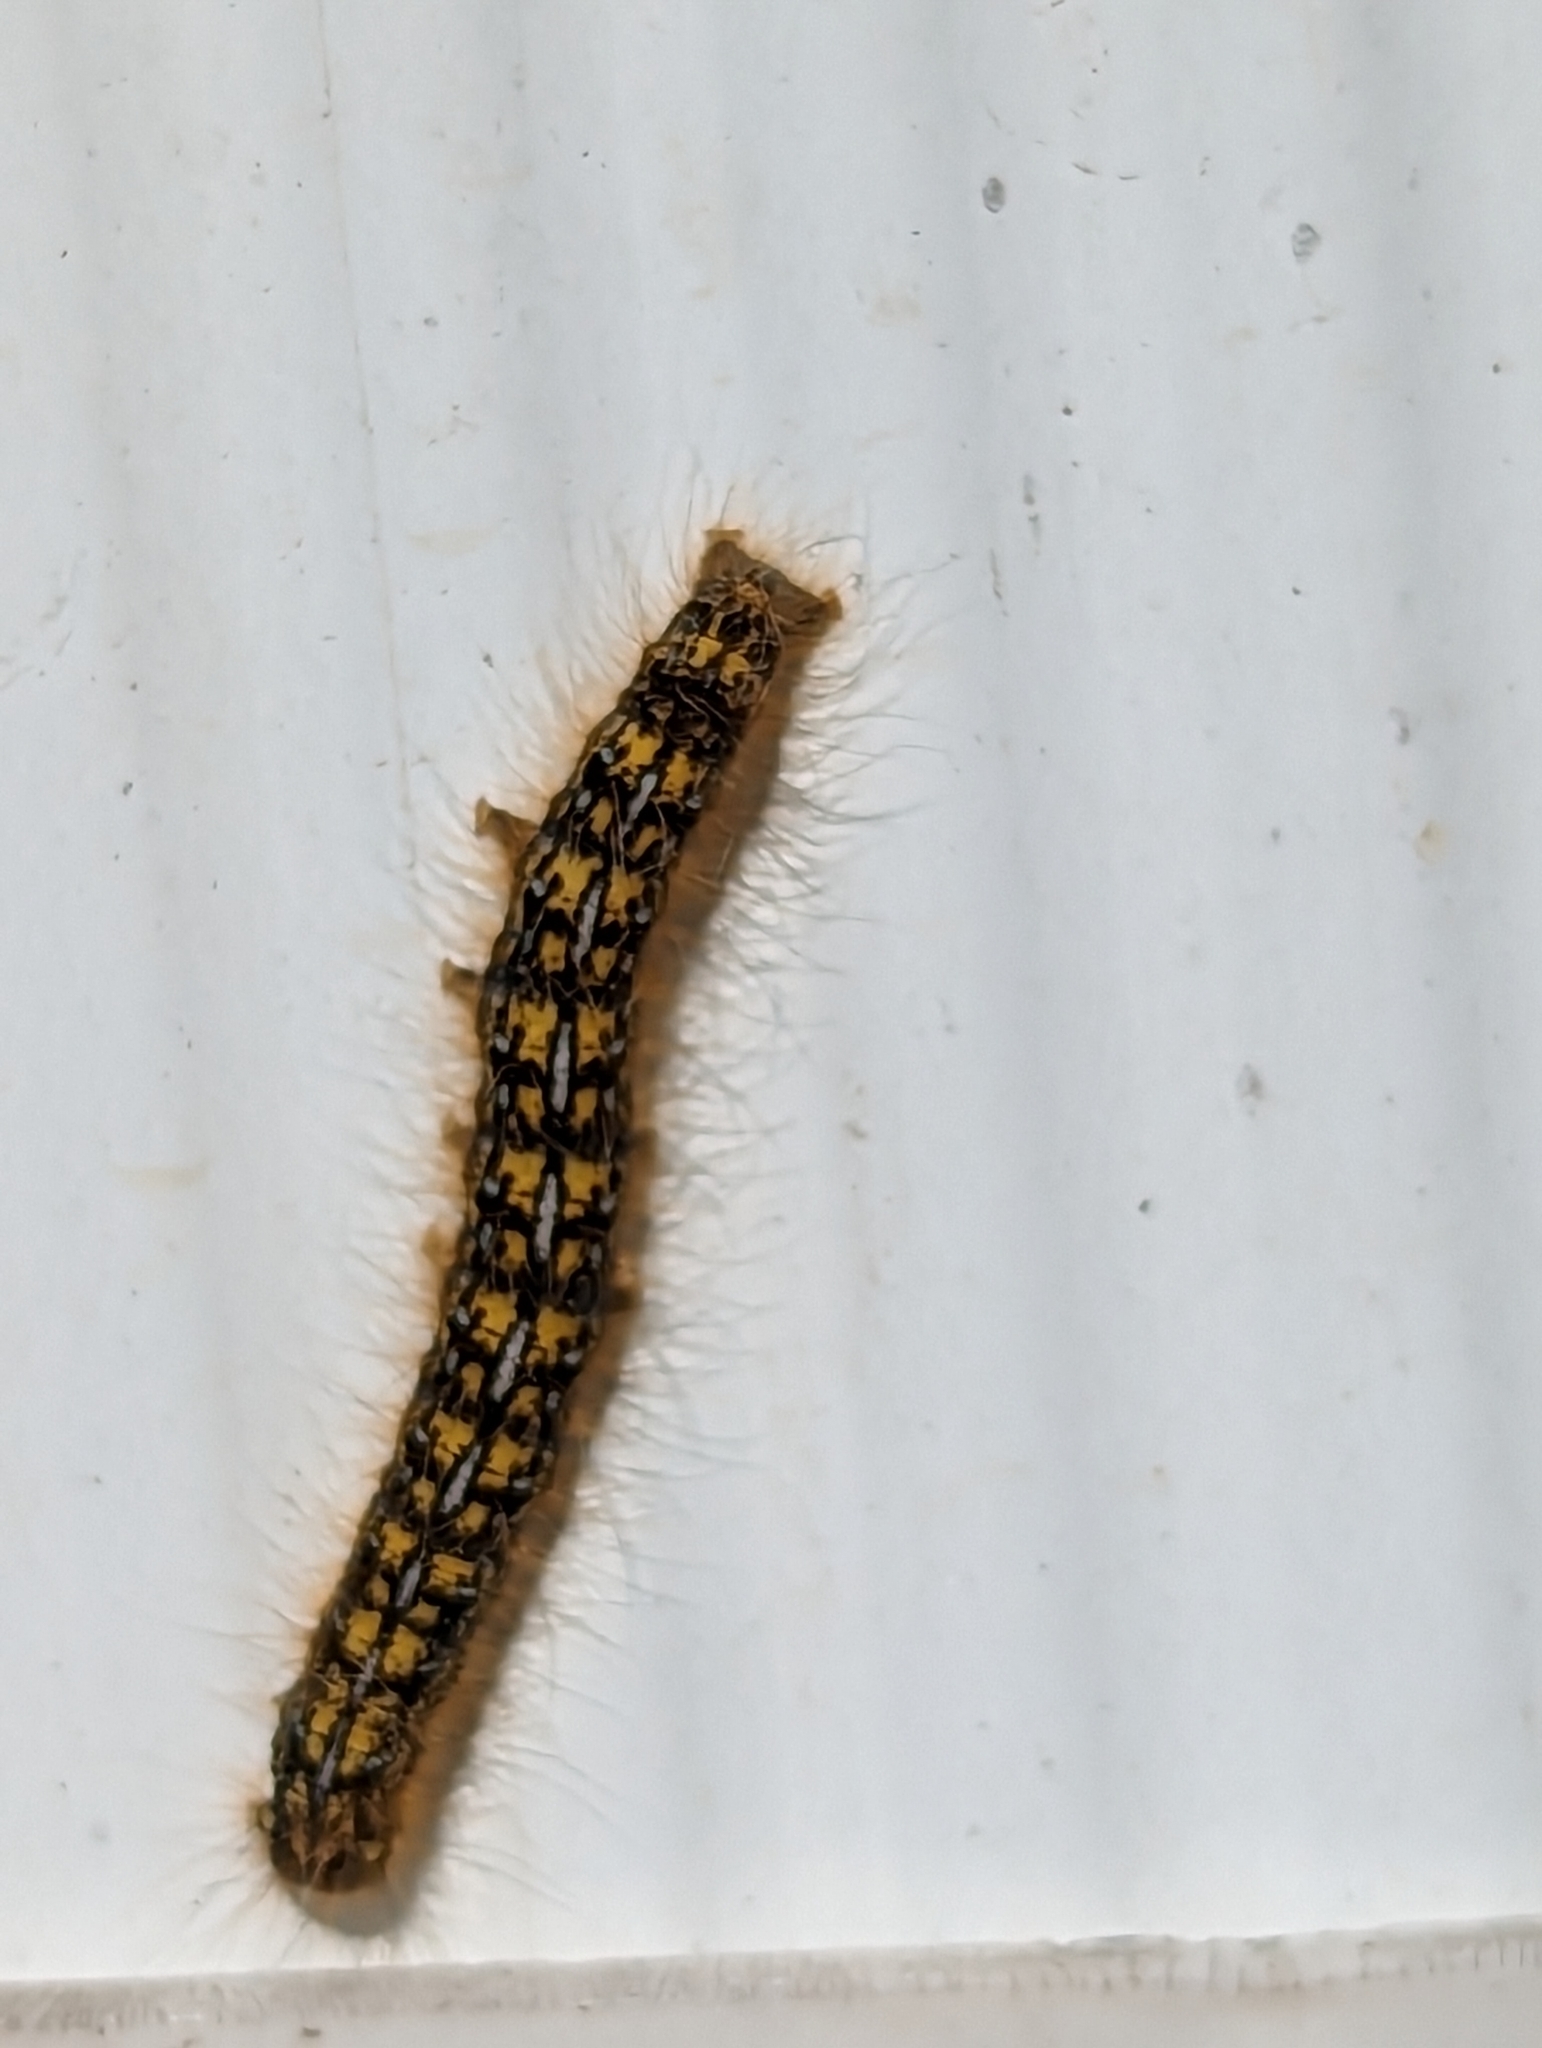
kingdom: Animalia
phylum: Arthropoda
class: Insecta
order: Lepidoptera
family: Lasiocampidae
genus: Malacosoma
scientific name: Malacosoma californica
